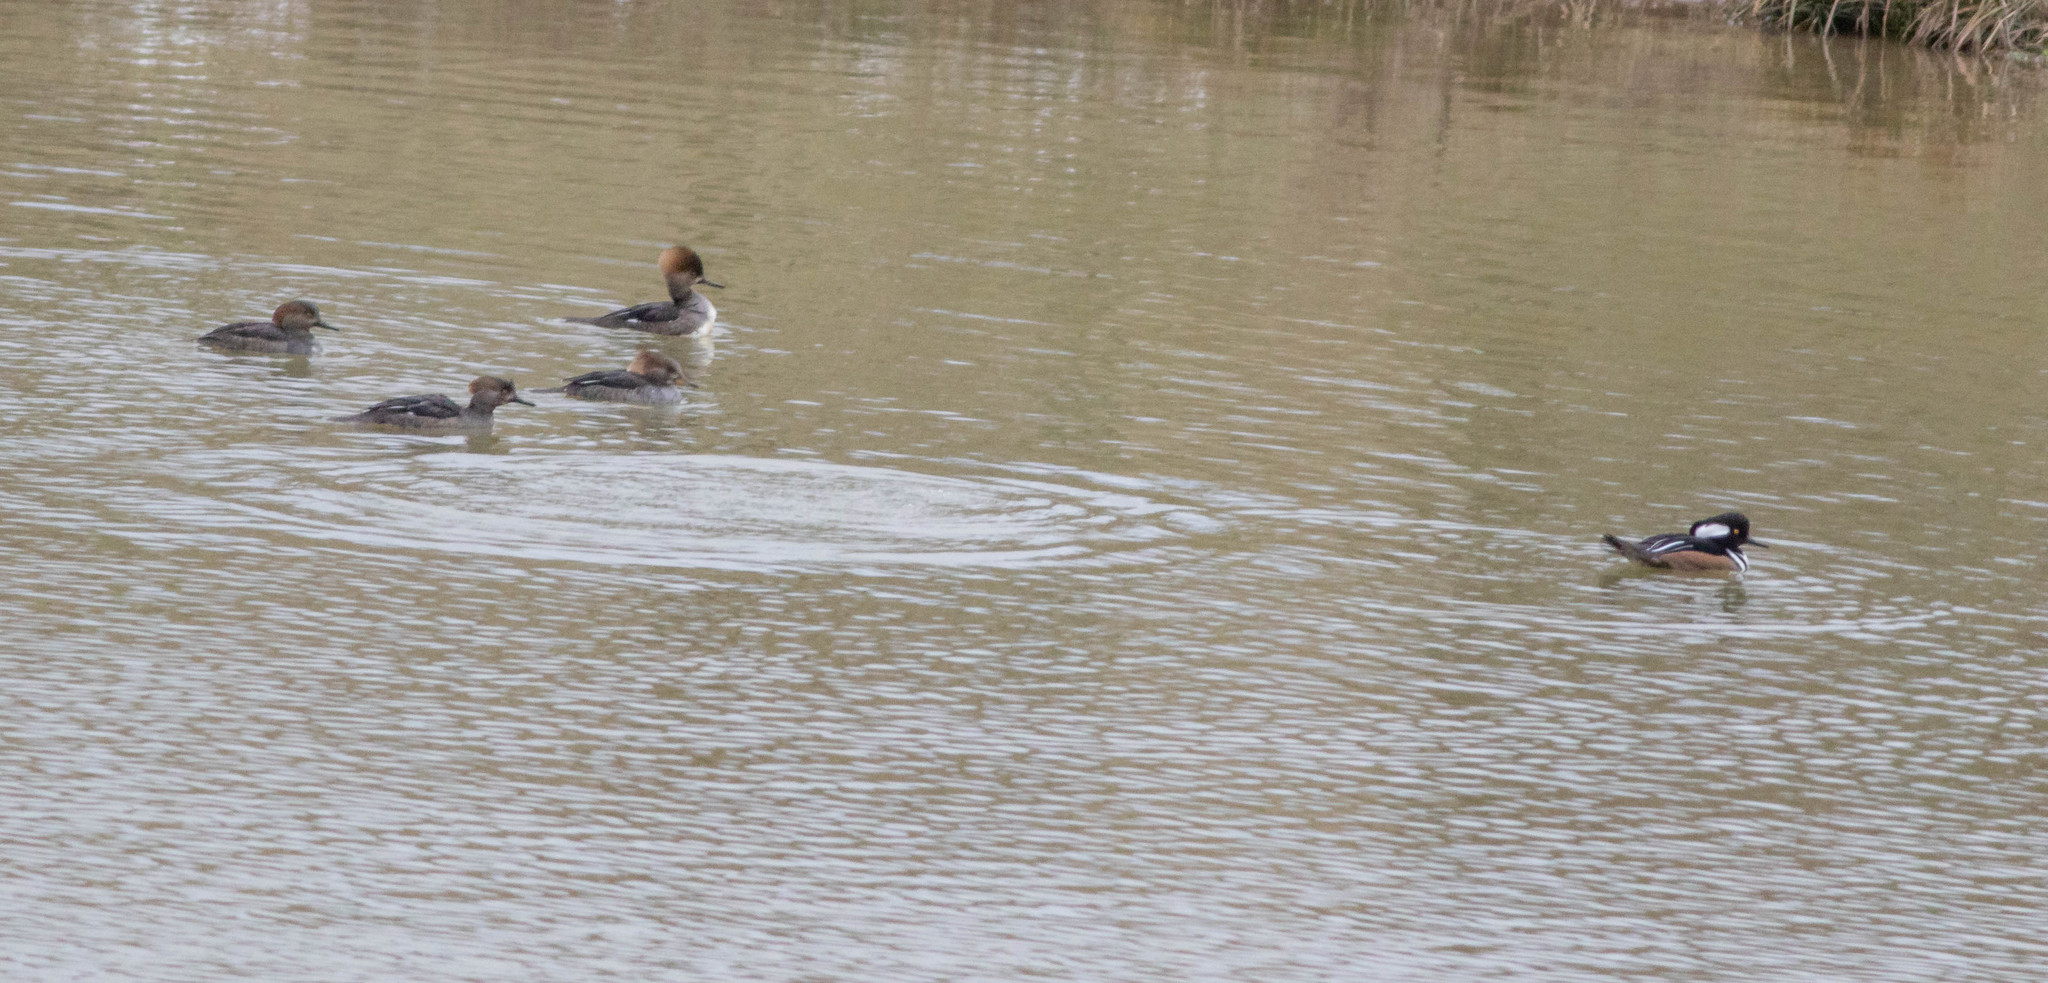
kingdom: Animalia
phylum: Chordata
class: Aves
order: Anseriformes
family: Anatidae
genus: Lophodytes
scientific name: Lophodytes cucullatus
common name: Hooded merganser
